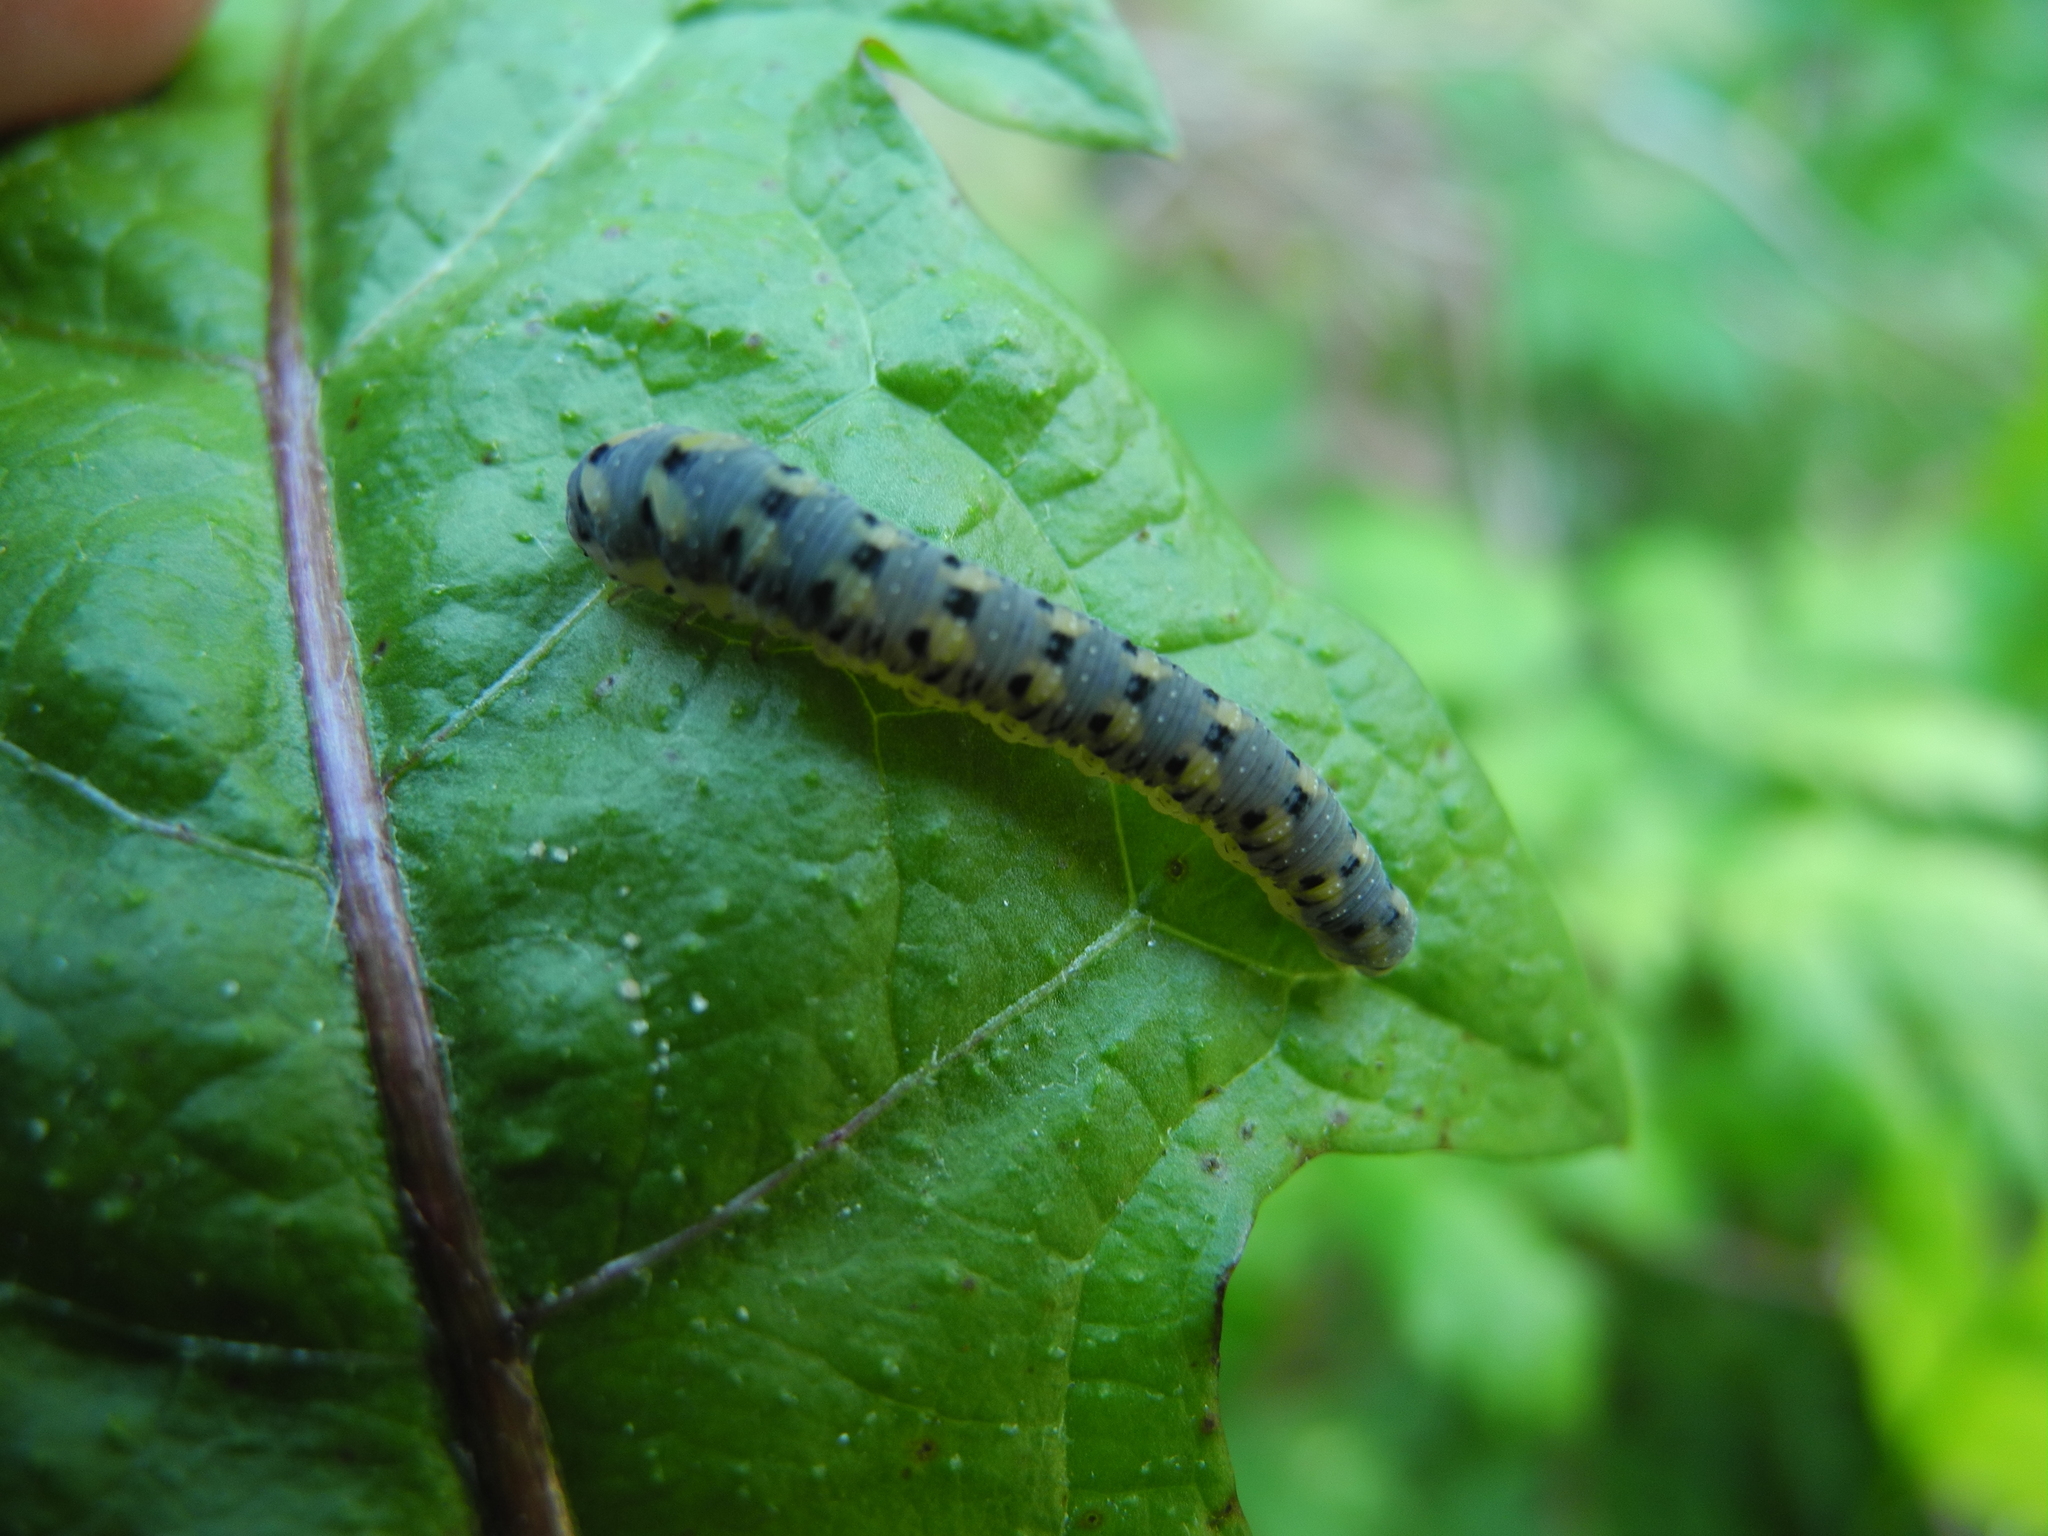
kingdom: Animalia
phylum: Arthropoda
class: Insecta
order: Hymenoptera
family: Tenthredinidae
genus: Tenthredo
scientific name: Tenthredo crassa
